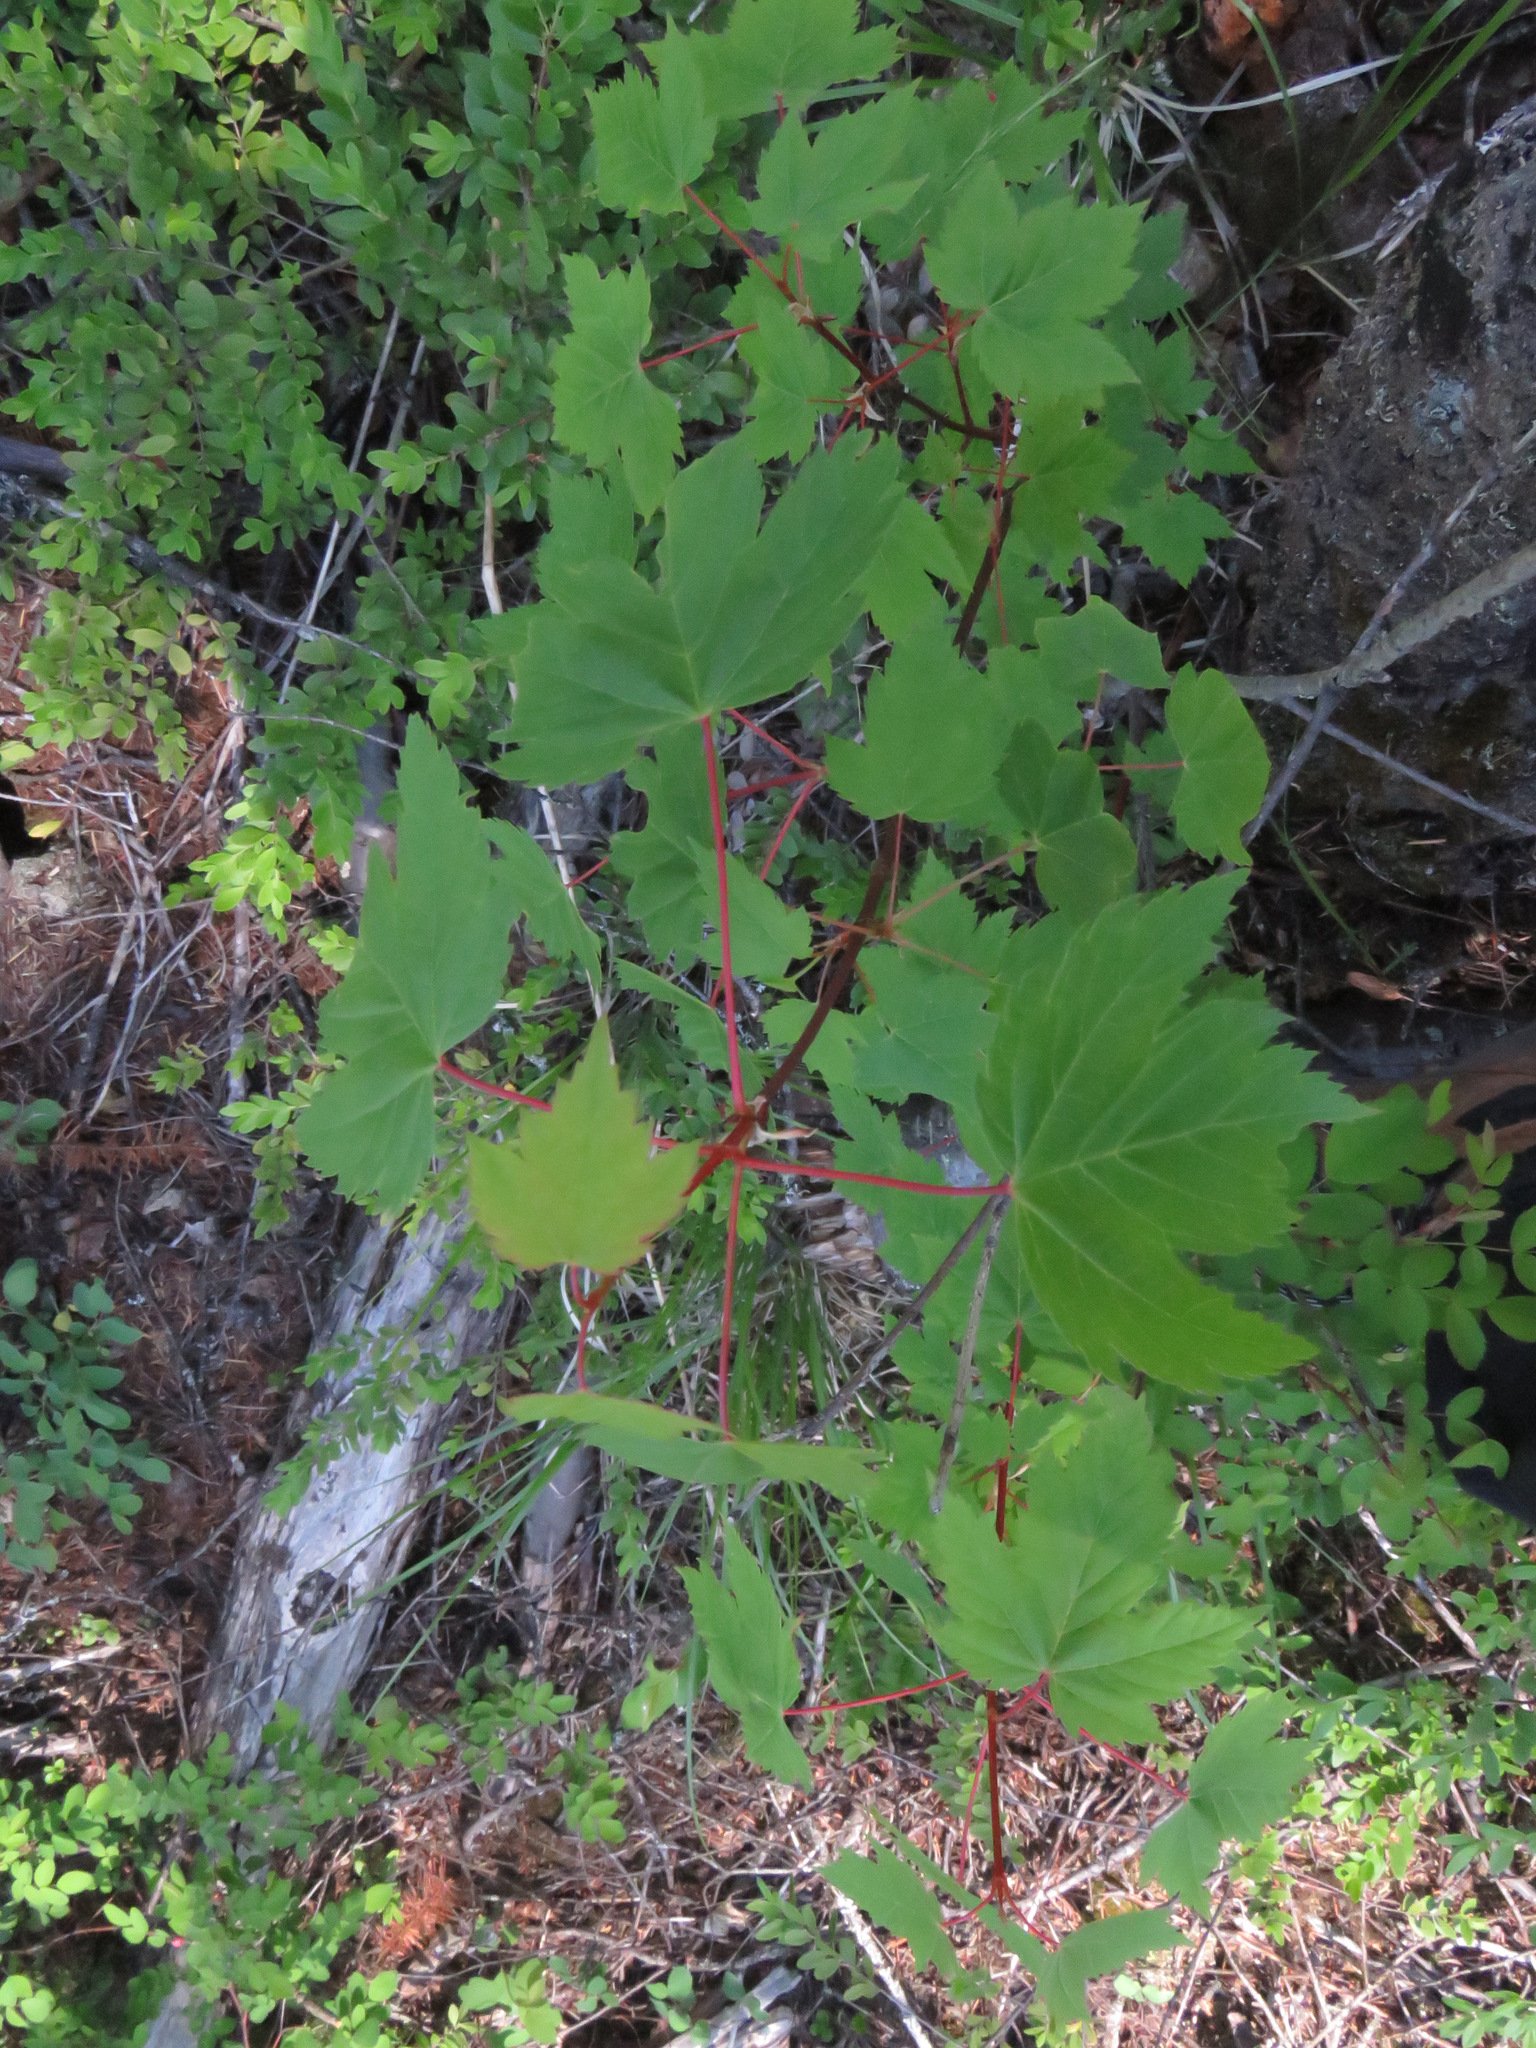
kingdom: Plantae
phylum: Tracheophyta
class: Magnoliopsida
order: Sapindales
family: Sapindaceae
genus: Acer
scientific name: Acer glabrum
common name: Rocky mountain maple
